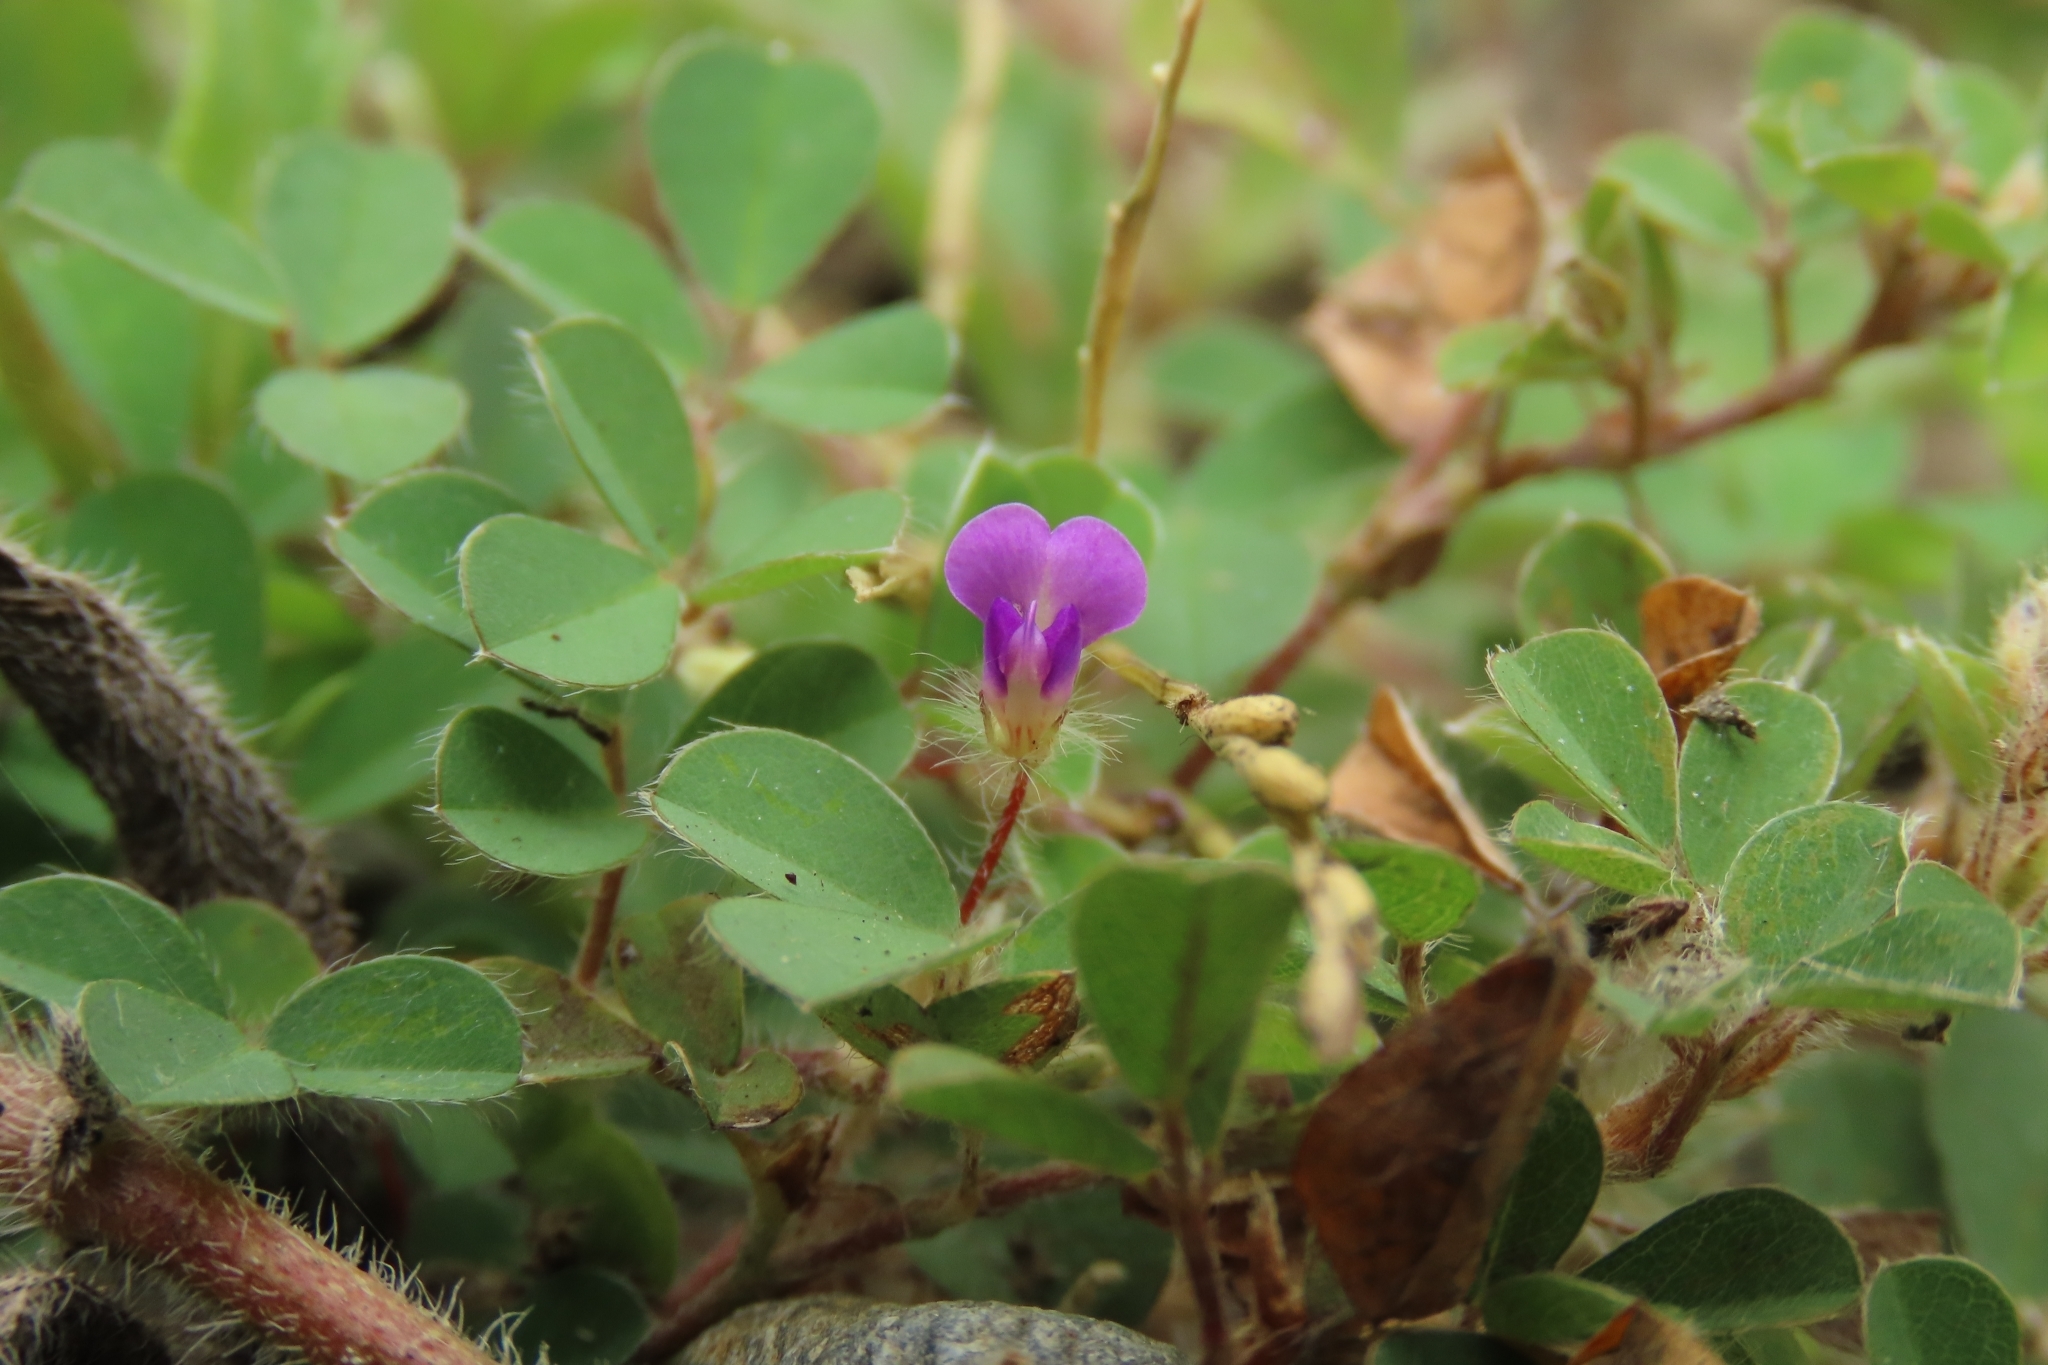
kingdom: Plantae
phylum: Tracheophyta
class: Magnoliopsida
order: Fabales
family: Fabaceae
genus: Grona
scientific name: Grona triflora
